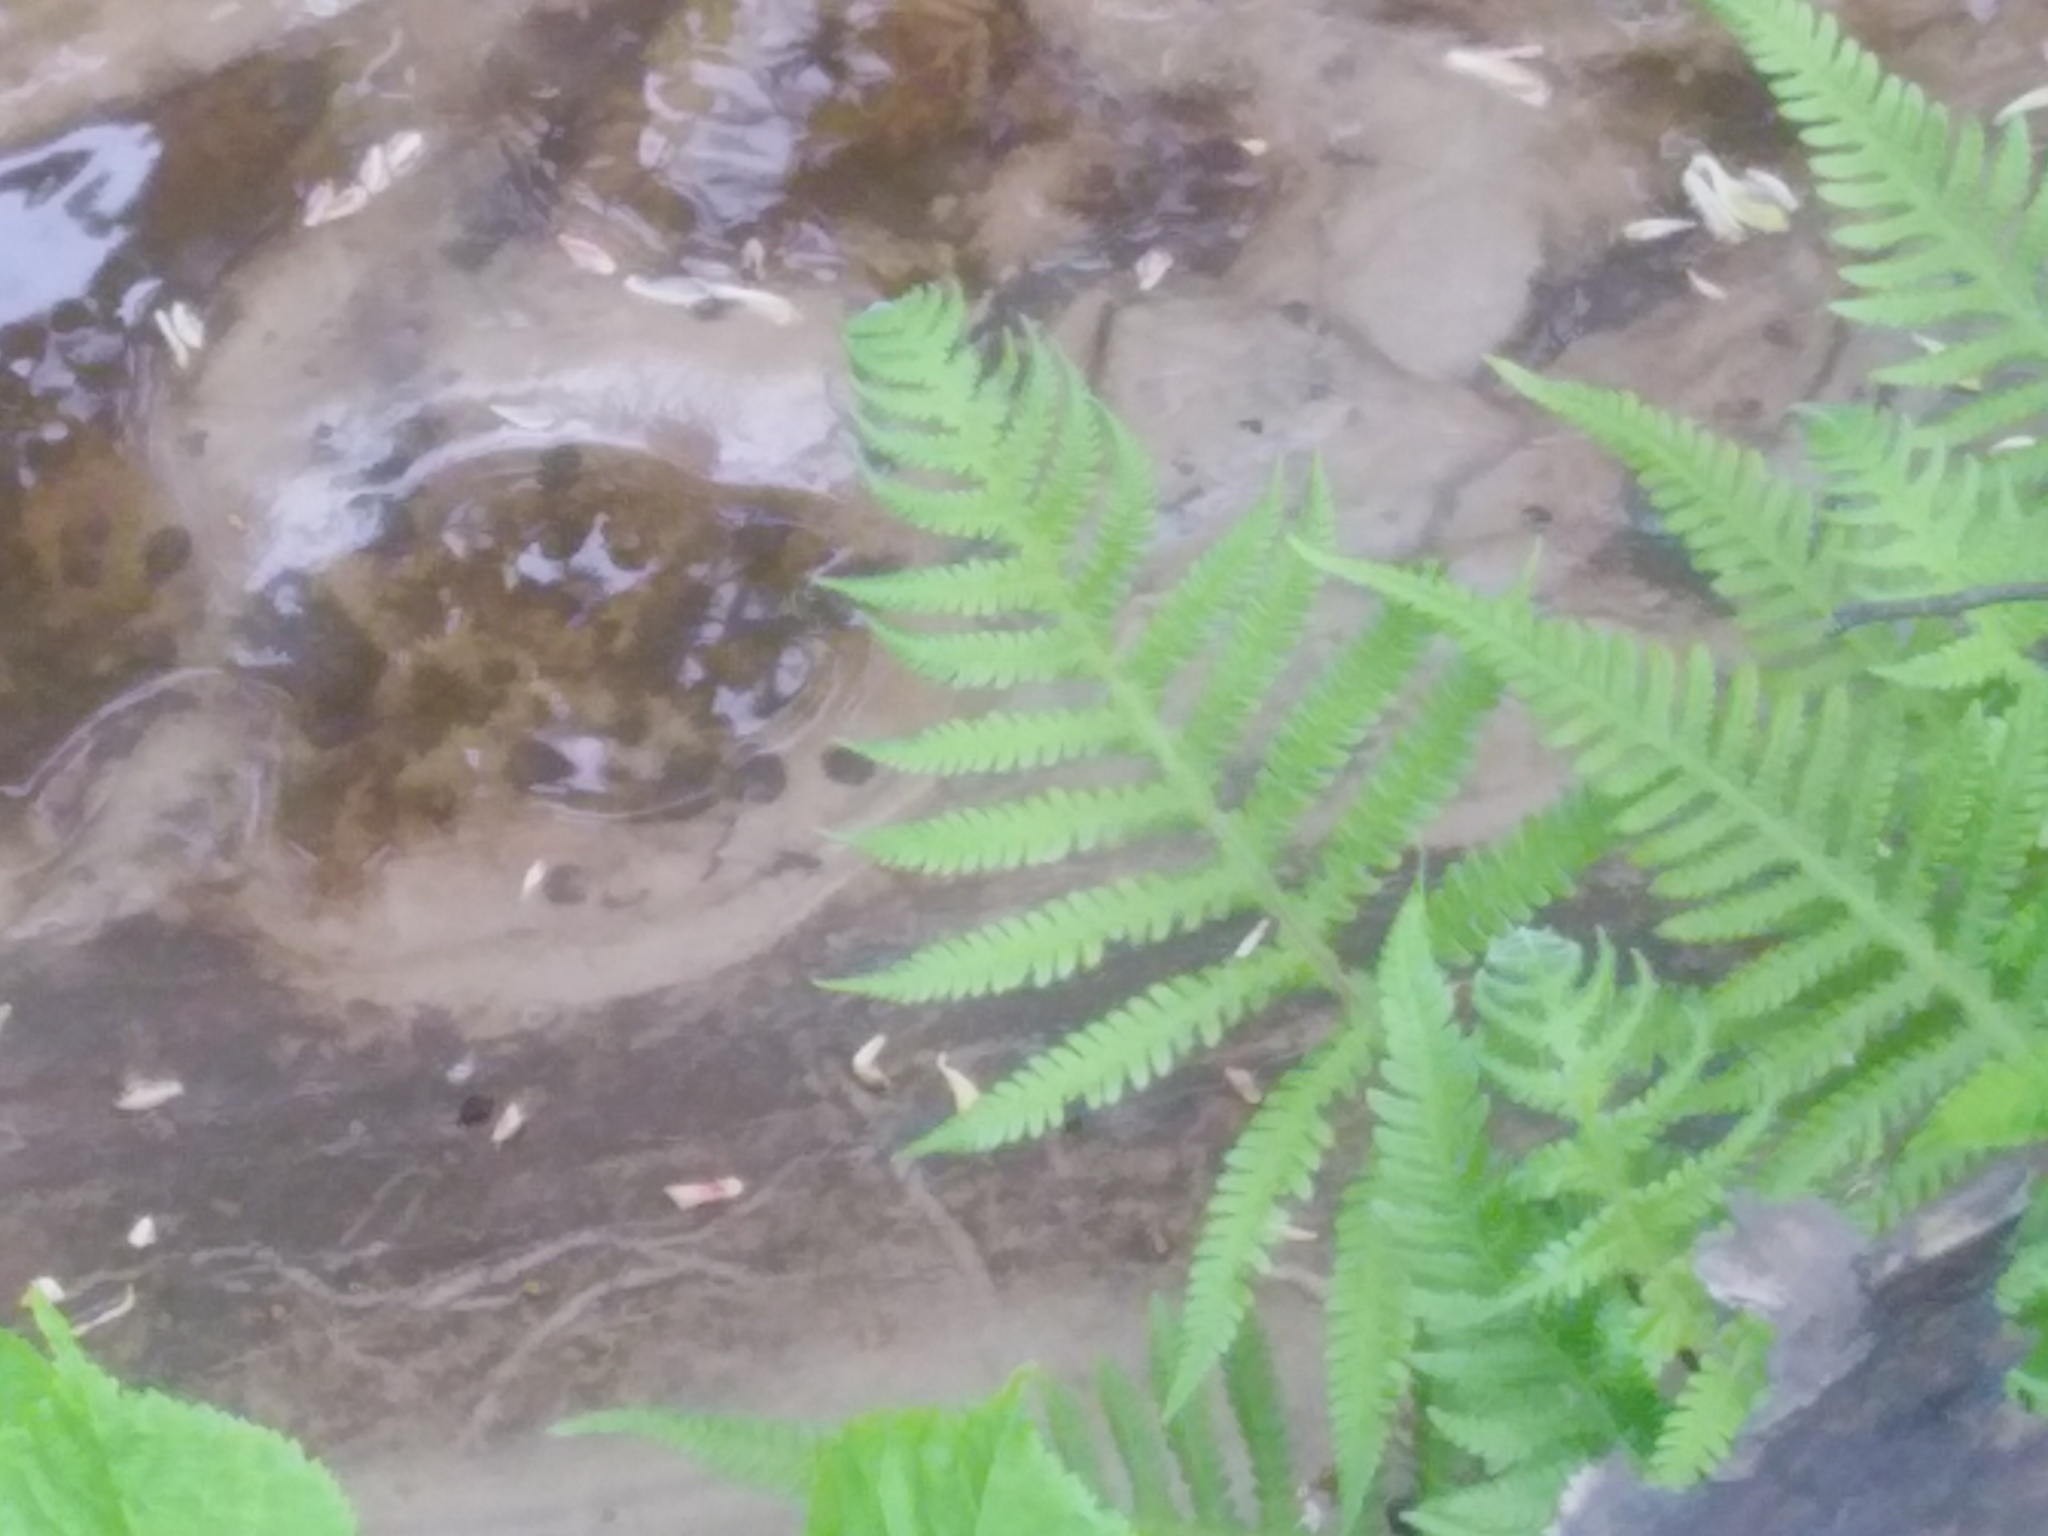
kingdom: Plantae
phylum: Tracheophyta
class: Polypodiopsida
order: Polypodiales
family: Thelypteridaceae
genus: Phegopteris
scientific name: Phegopteris connectilis
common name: Beech fern
